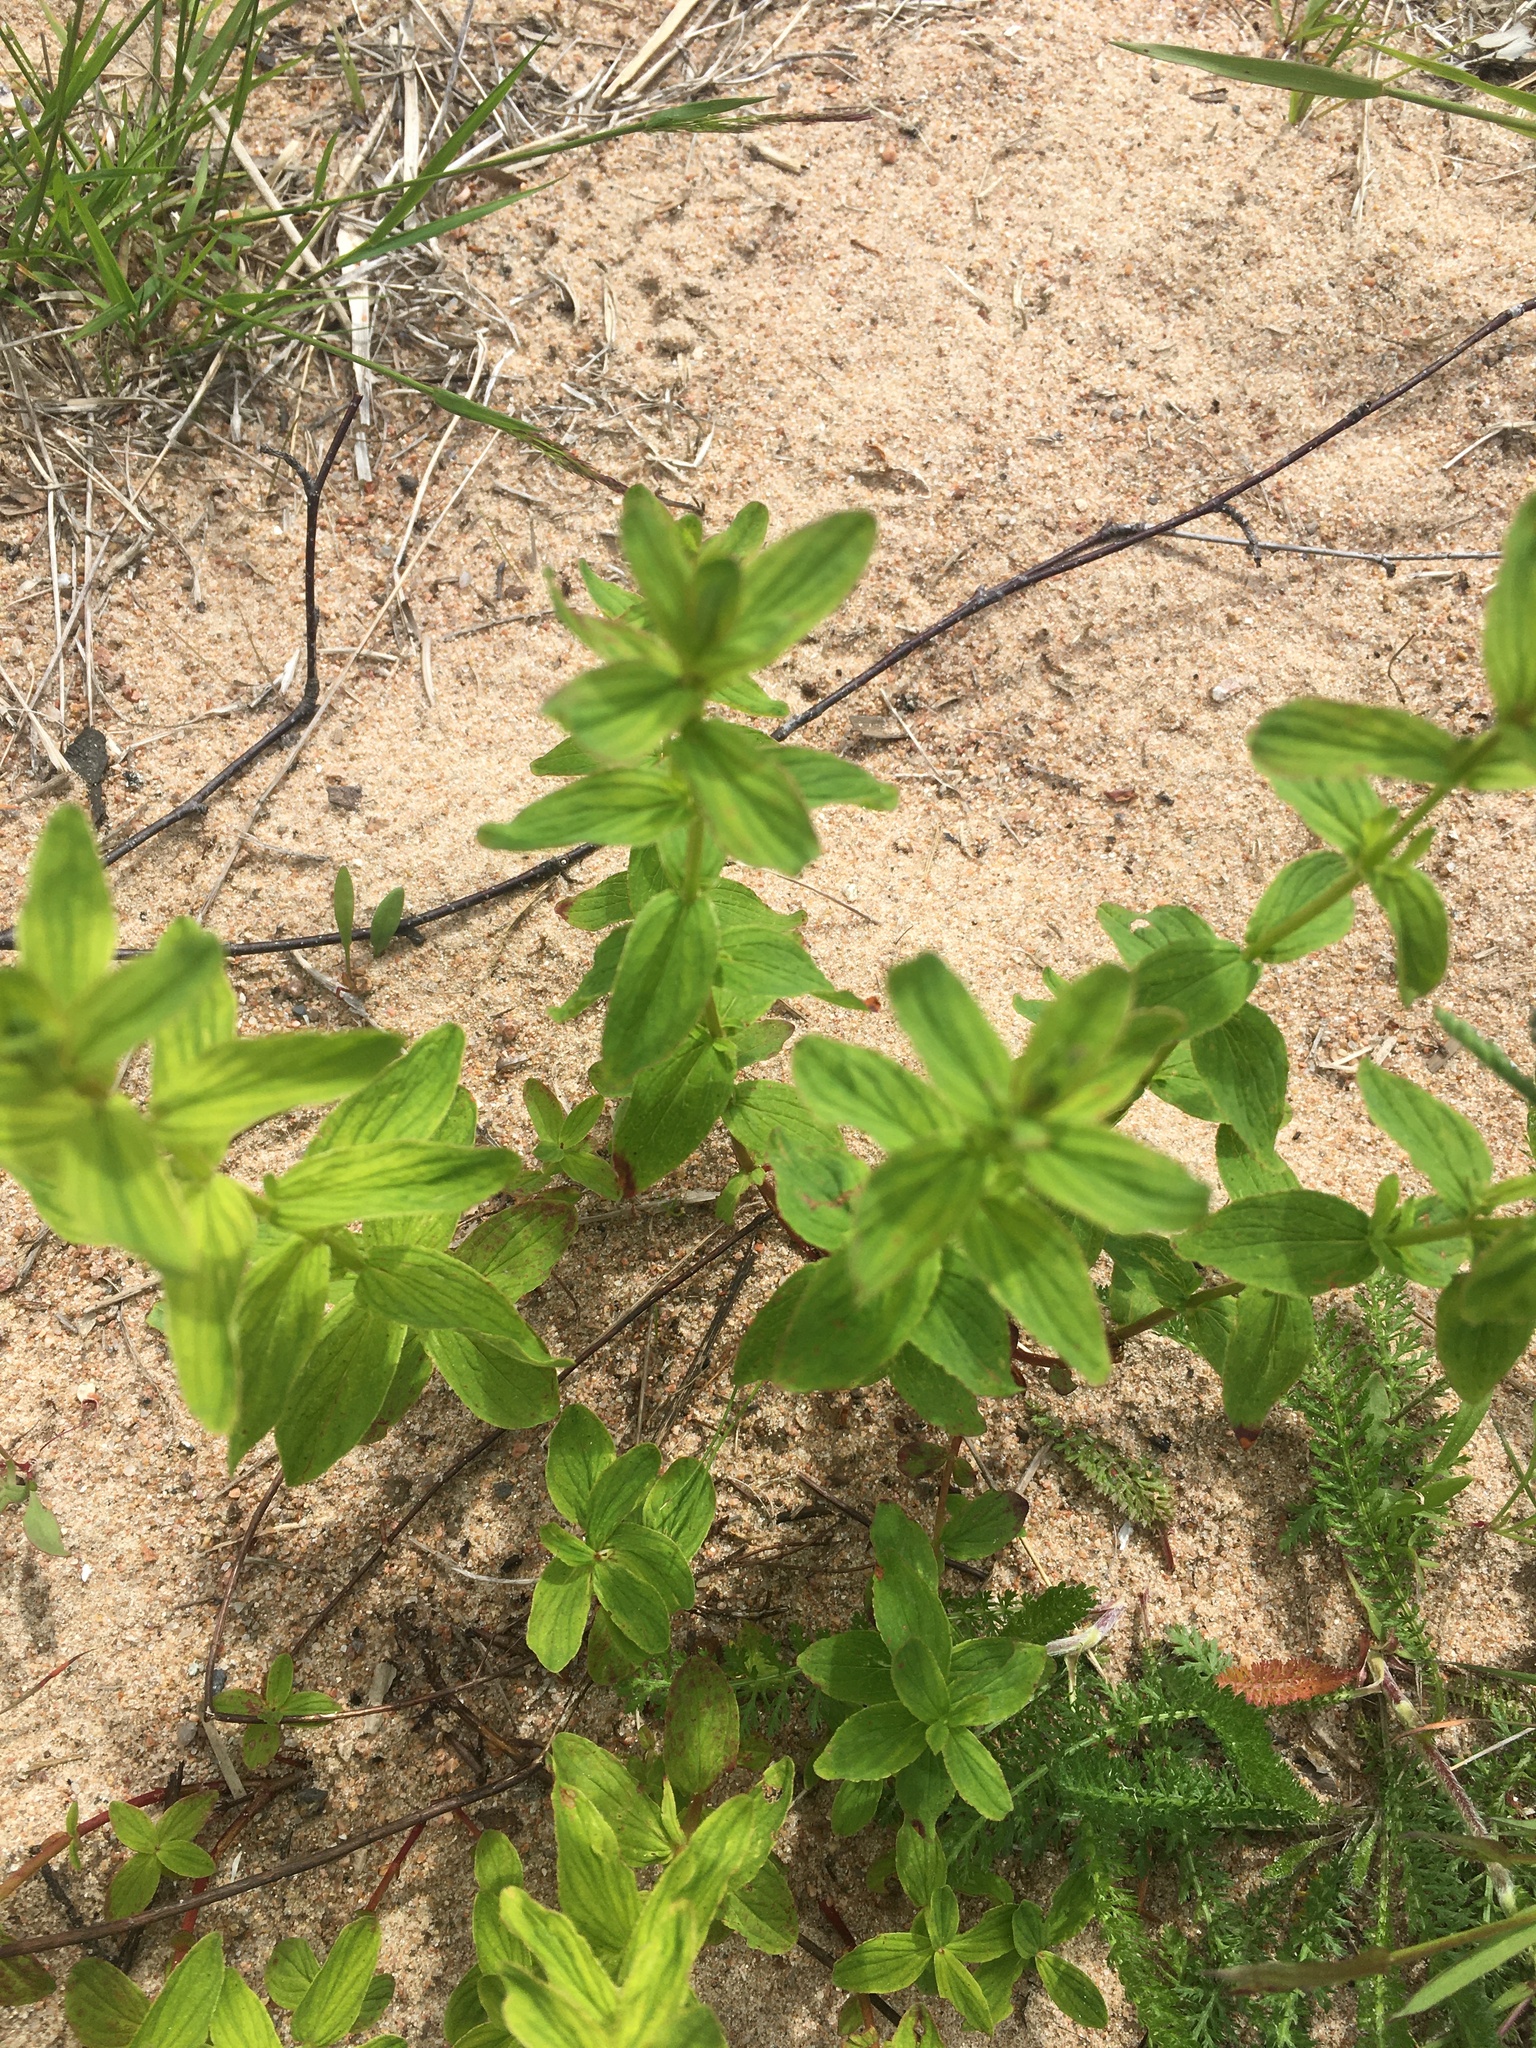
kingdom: Plantae
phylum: Tracheophyta
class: Magnoliopsida
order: Malpighiales
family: Hypericaceae
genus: Hypericum
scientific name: Hypericum maculatum
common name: Imperforate st. john's-wort
